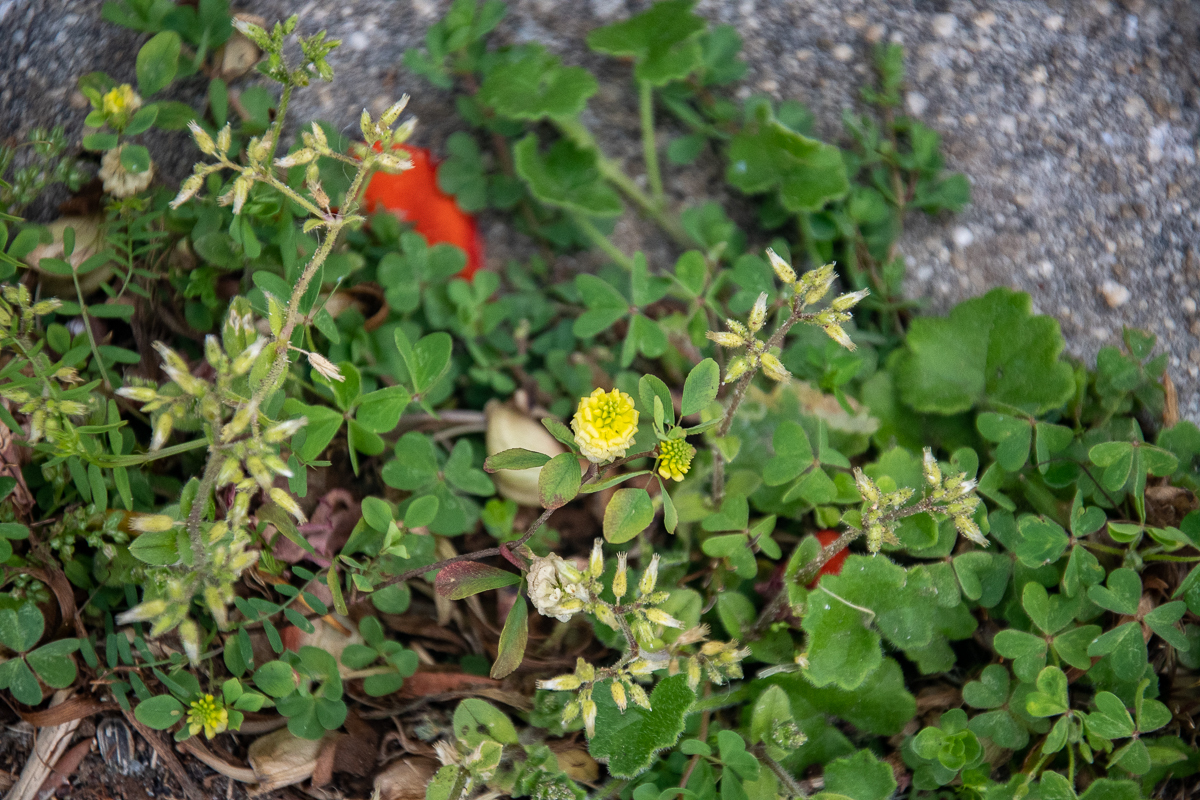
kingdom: Plantae
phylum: Tracheophyta
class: Magnoliopsida
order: Fabales
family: Fabaceae
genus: Trifolium
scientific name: Trifolium campestre
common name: Field clover
